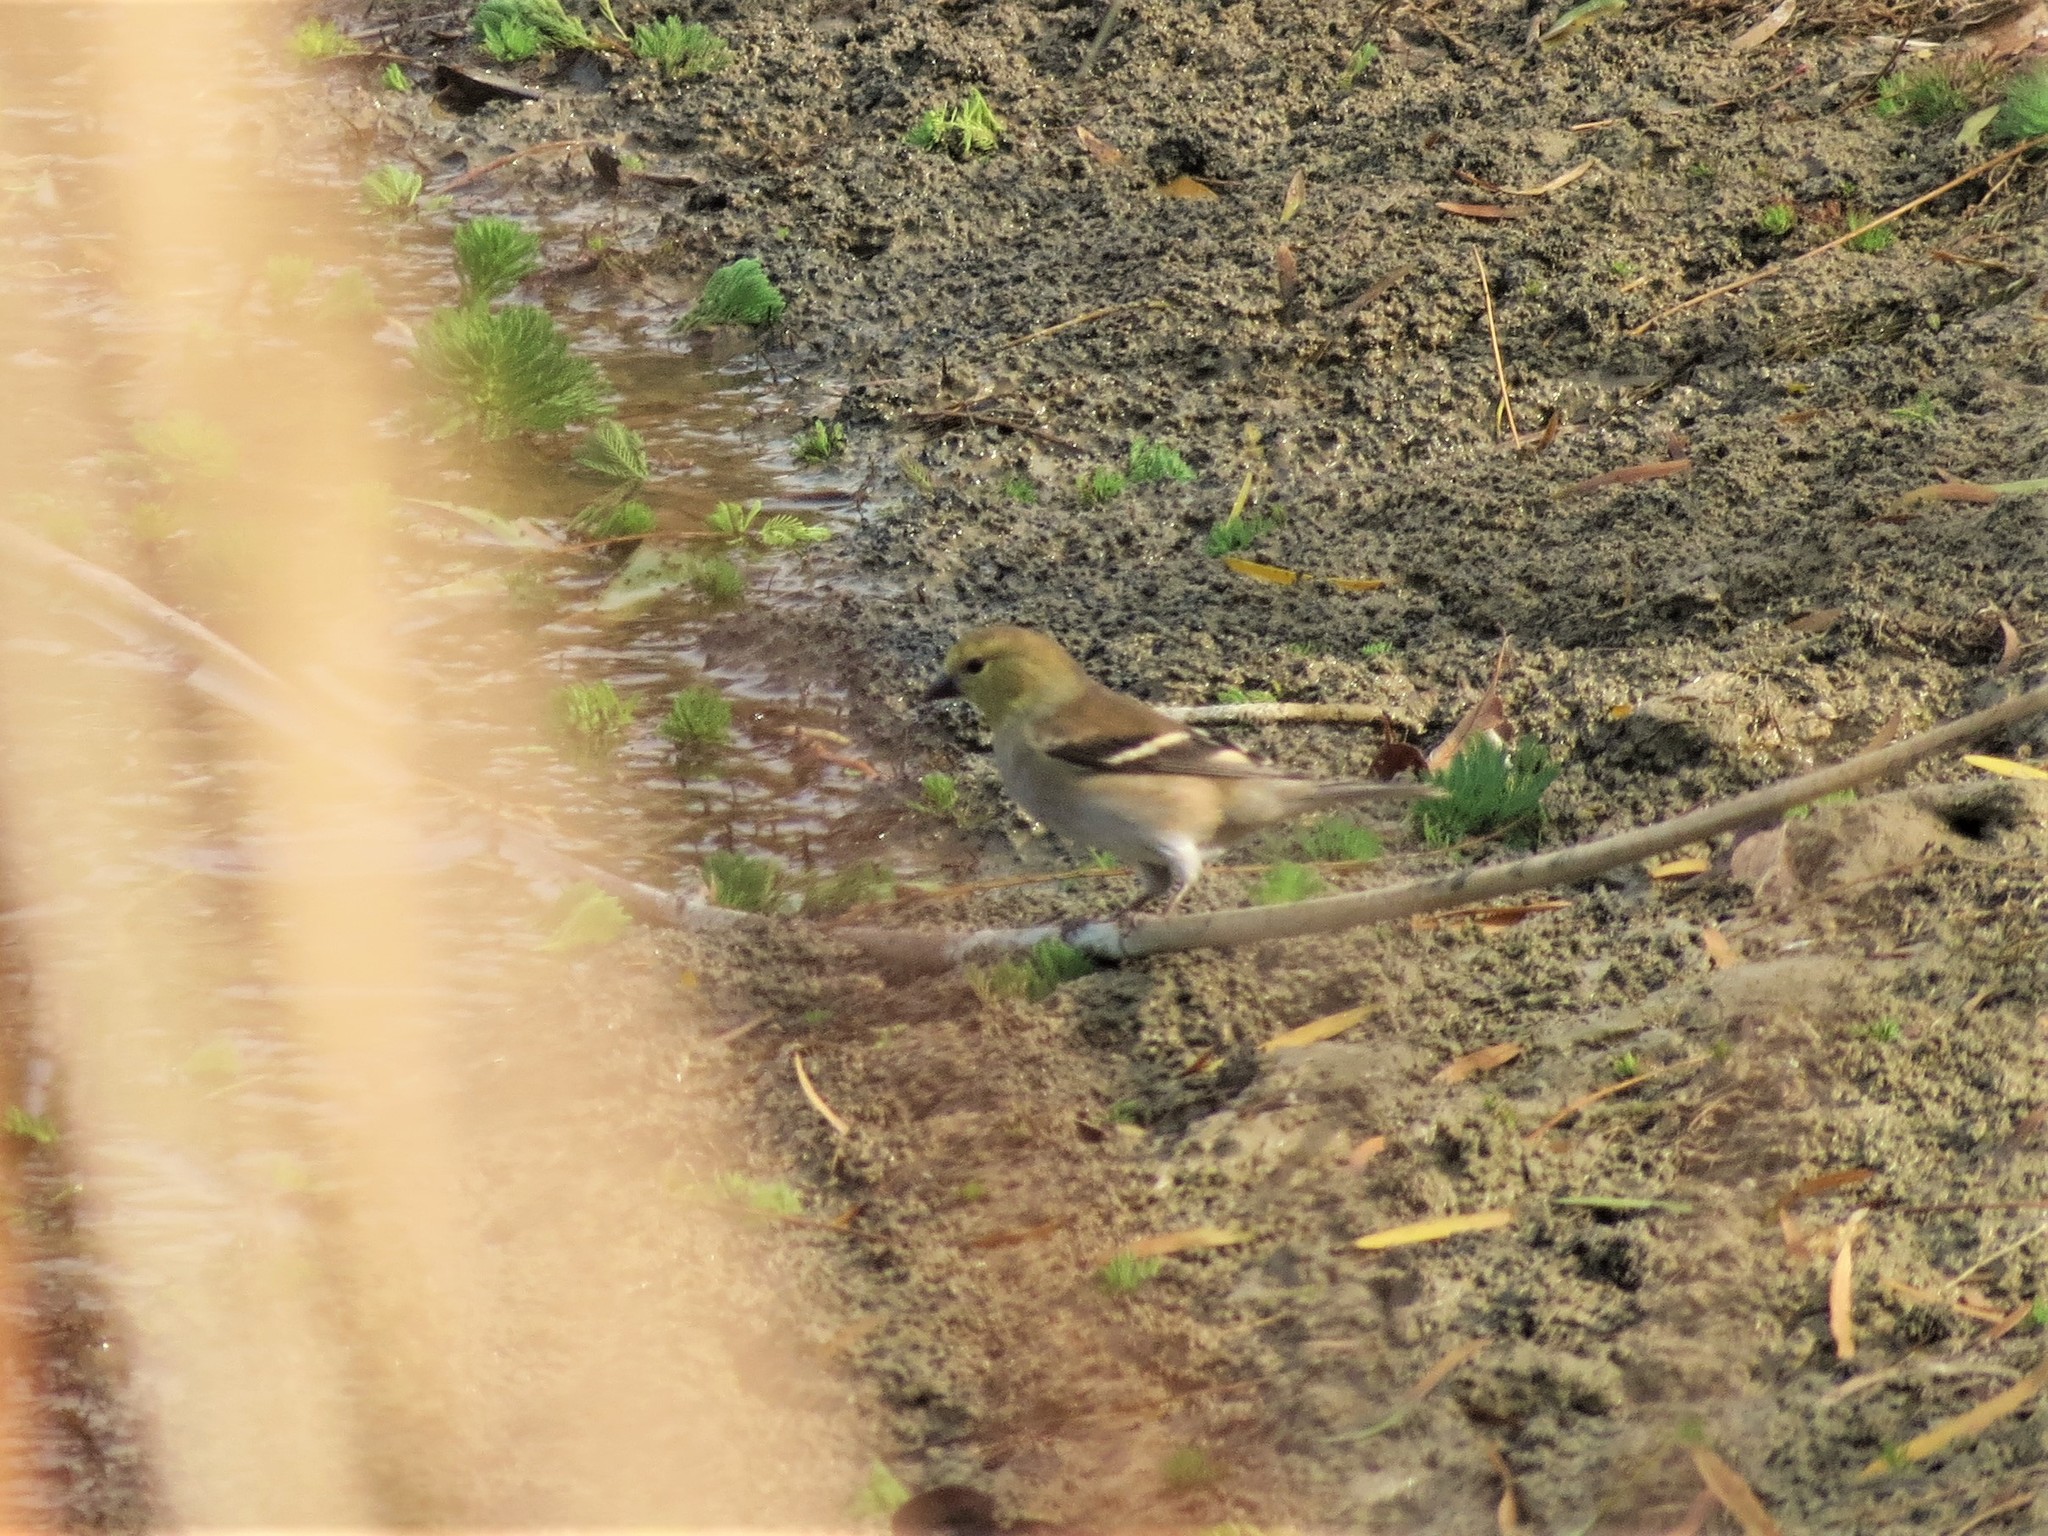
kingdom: Animalia
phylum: Chordata
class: Aves
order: Passeriformes
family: Fringillidae
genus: Spinus
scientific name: Spinus tristis
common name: American goldfinch
